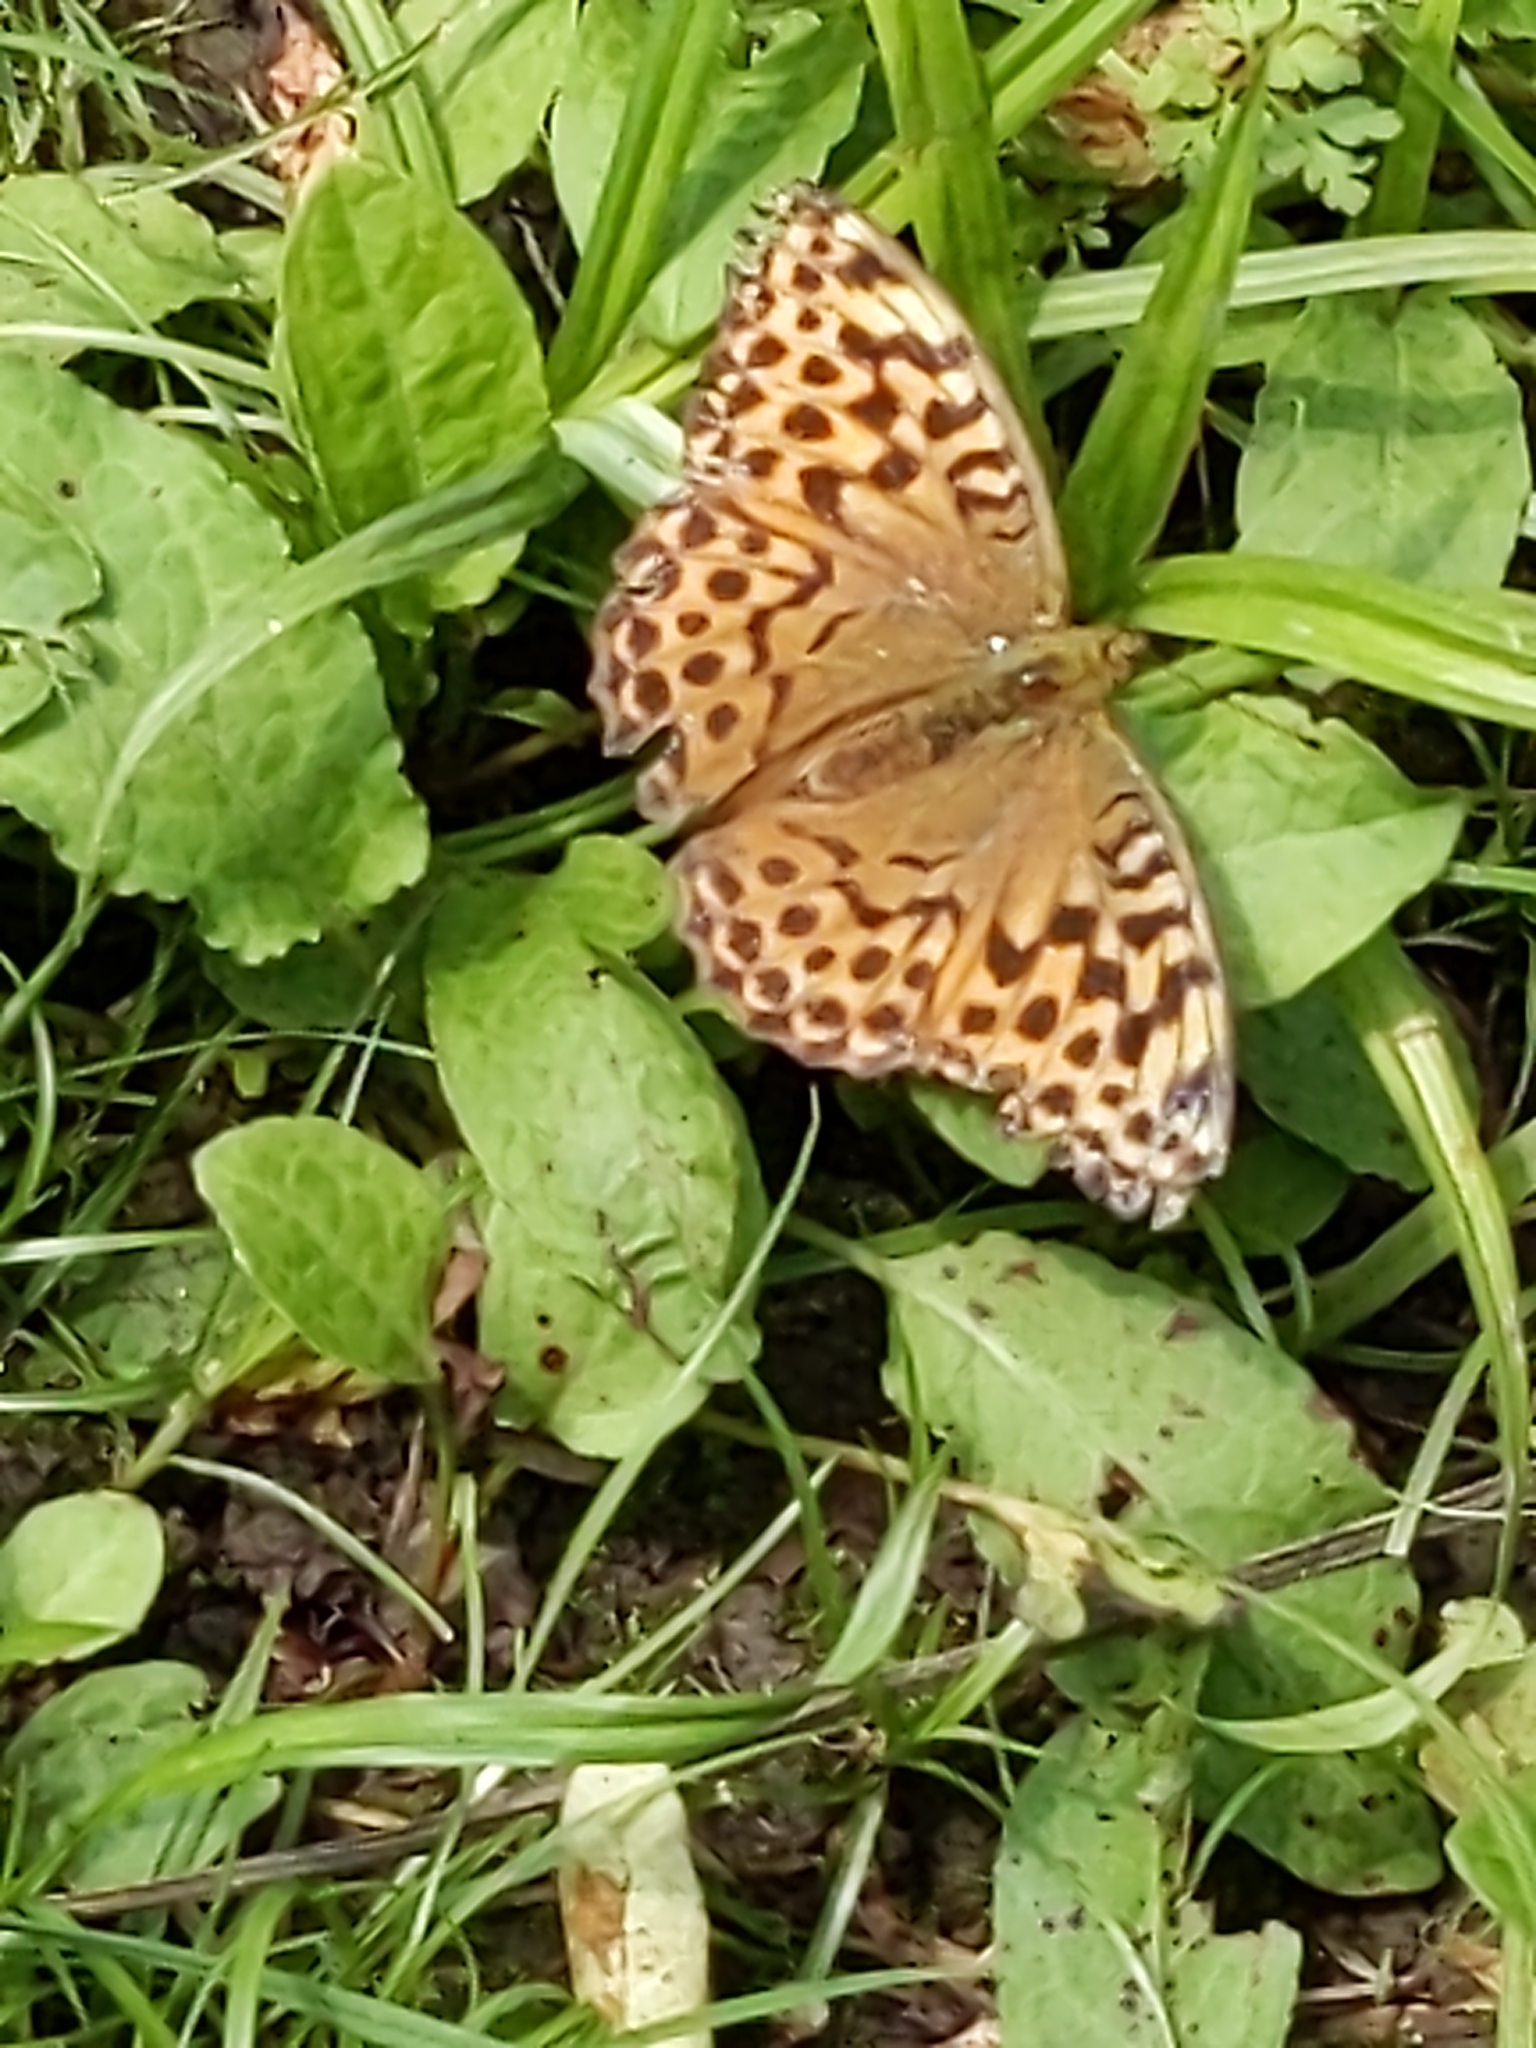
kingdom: Animalia
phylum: Arthropoda
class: Insecta
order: Lepidoptera
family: Nymphalidae
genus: Argynnis
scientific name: Argynnis paphia
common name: Silver-washed fritillary
